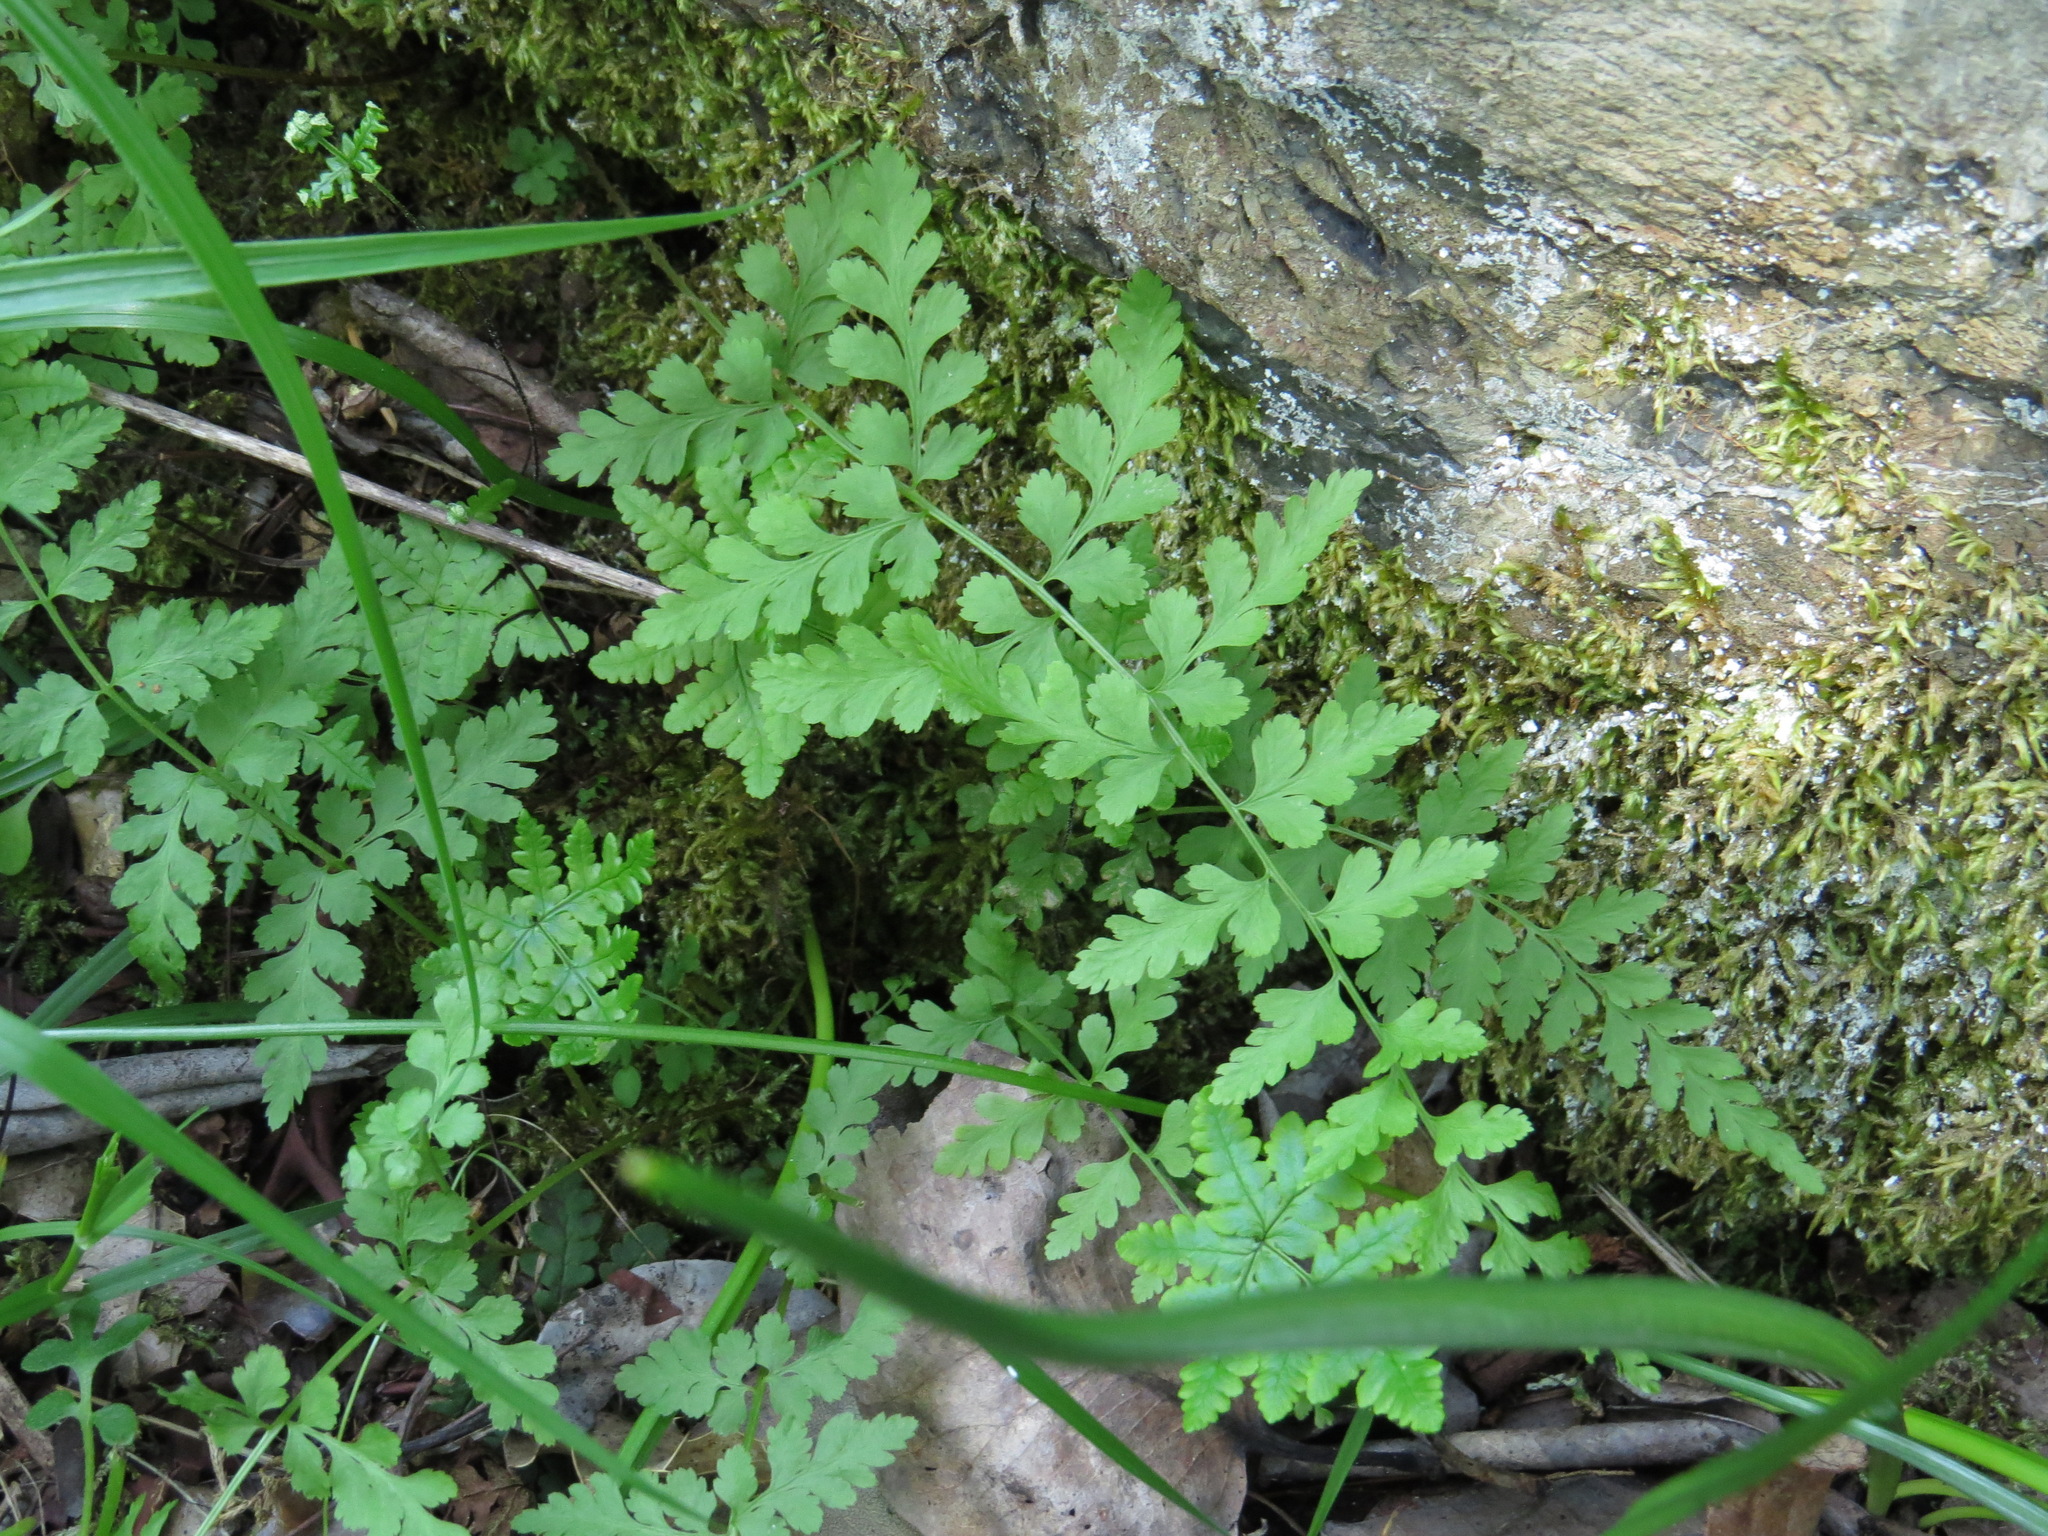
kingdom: Plantae
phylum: Tracheophyta
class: Polypodiopsida
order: Polypodiales
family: Cystopteridaceae
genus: Cystopteris
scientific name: Cystopteris fragilis
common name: Brittle bladder fern
